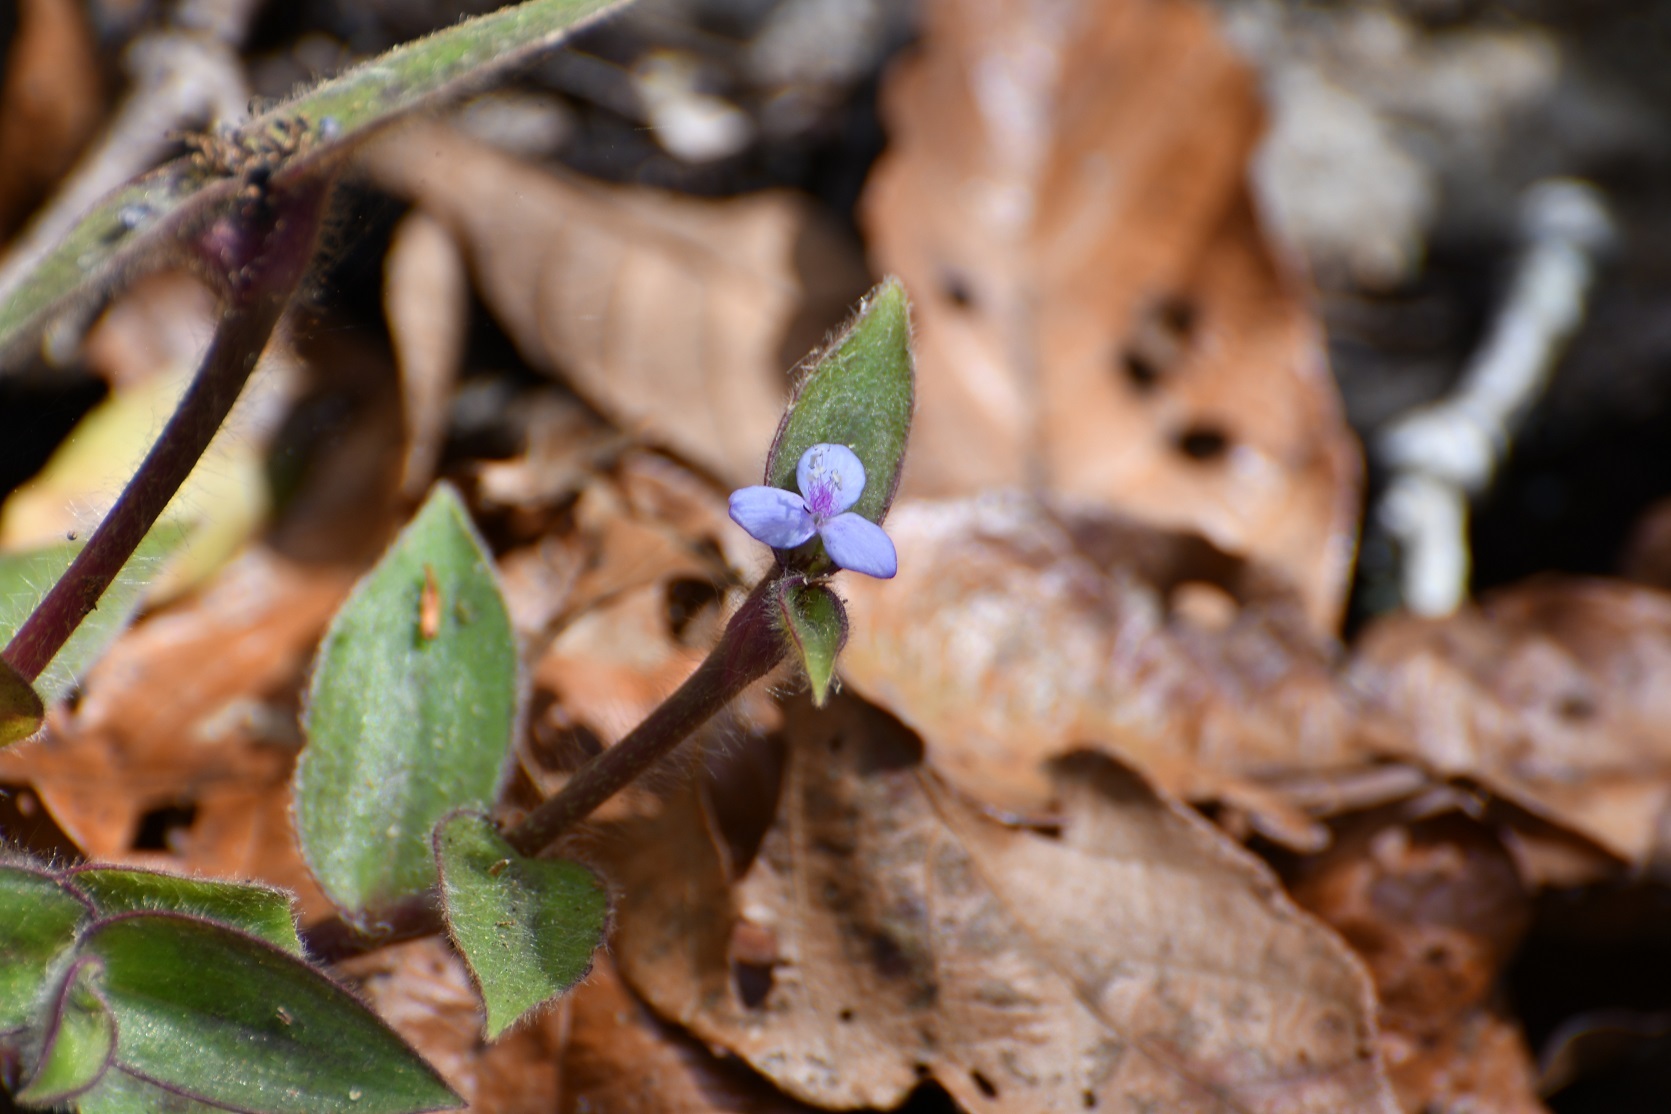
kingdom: Plantae
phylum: Tracheophyta
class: Liliopsida
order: Commelinales
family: Commelinaceae
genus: Tradescantia
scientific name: Tradescantia zebrina
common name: Inchplant
